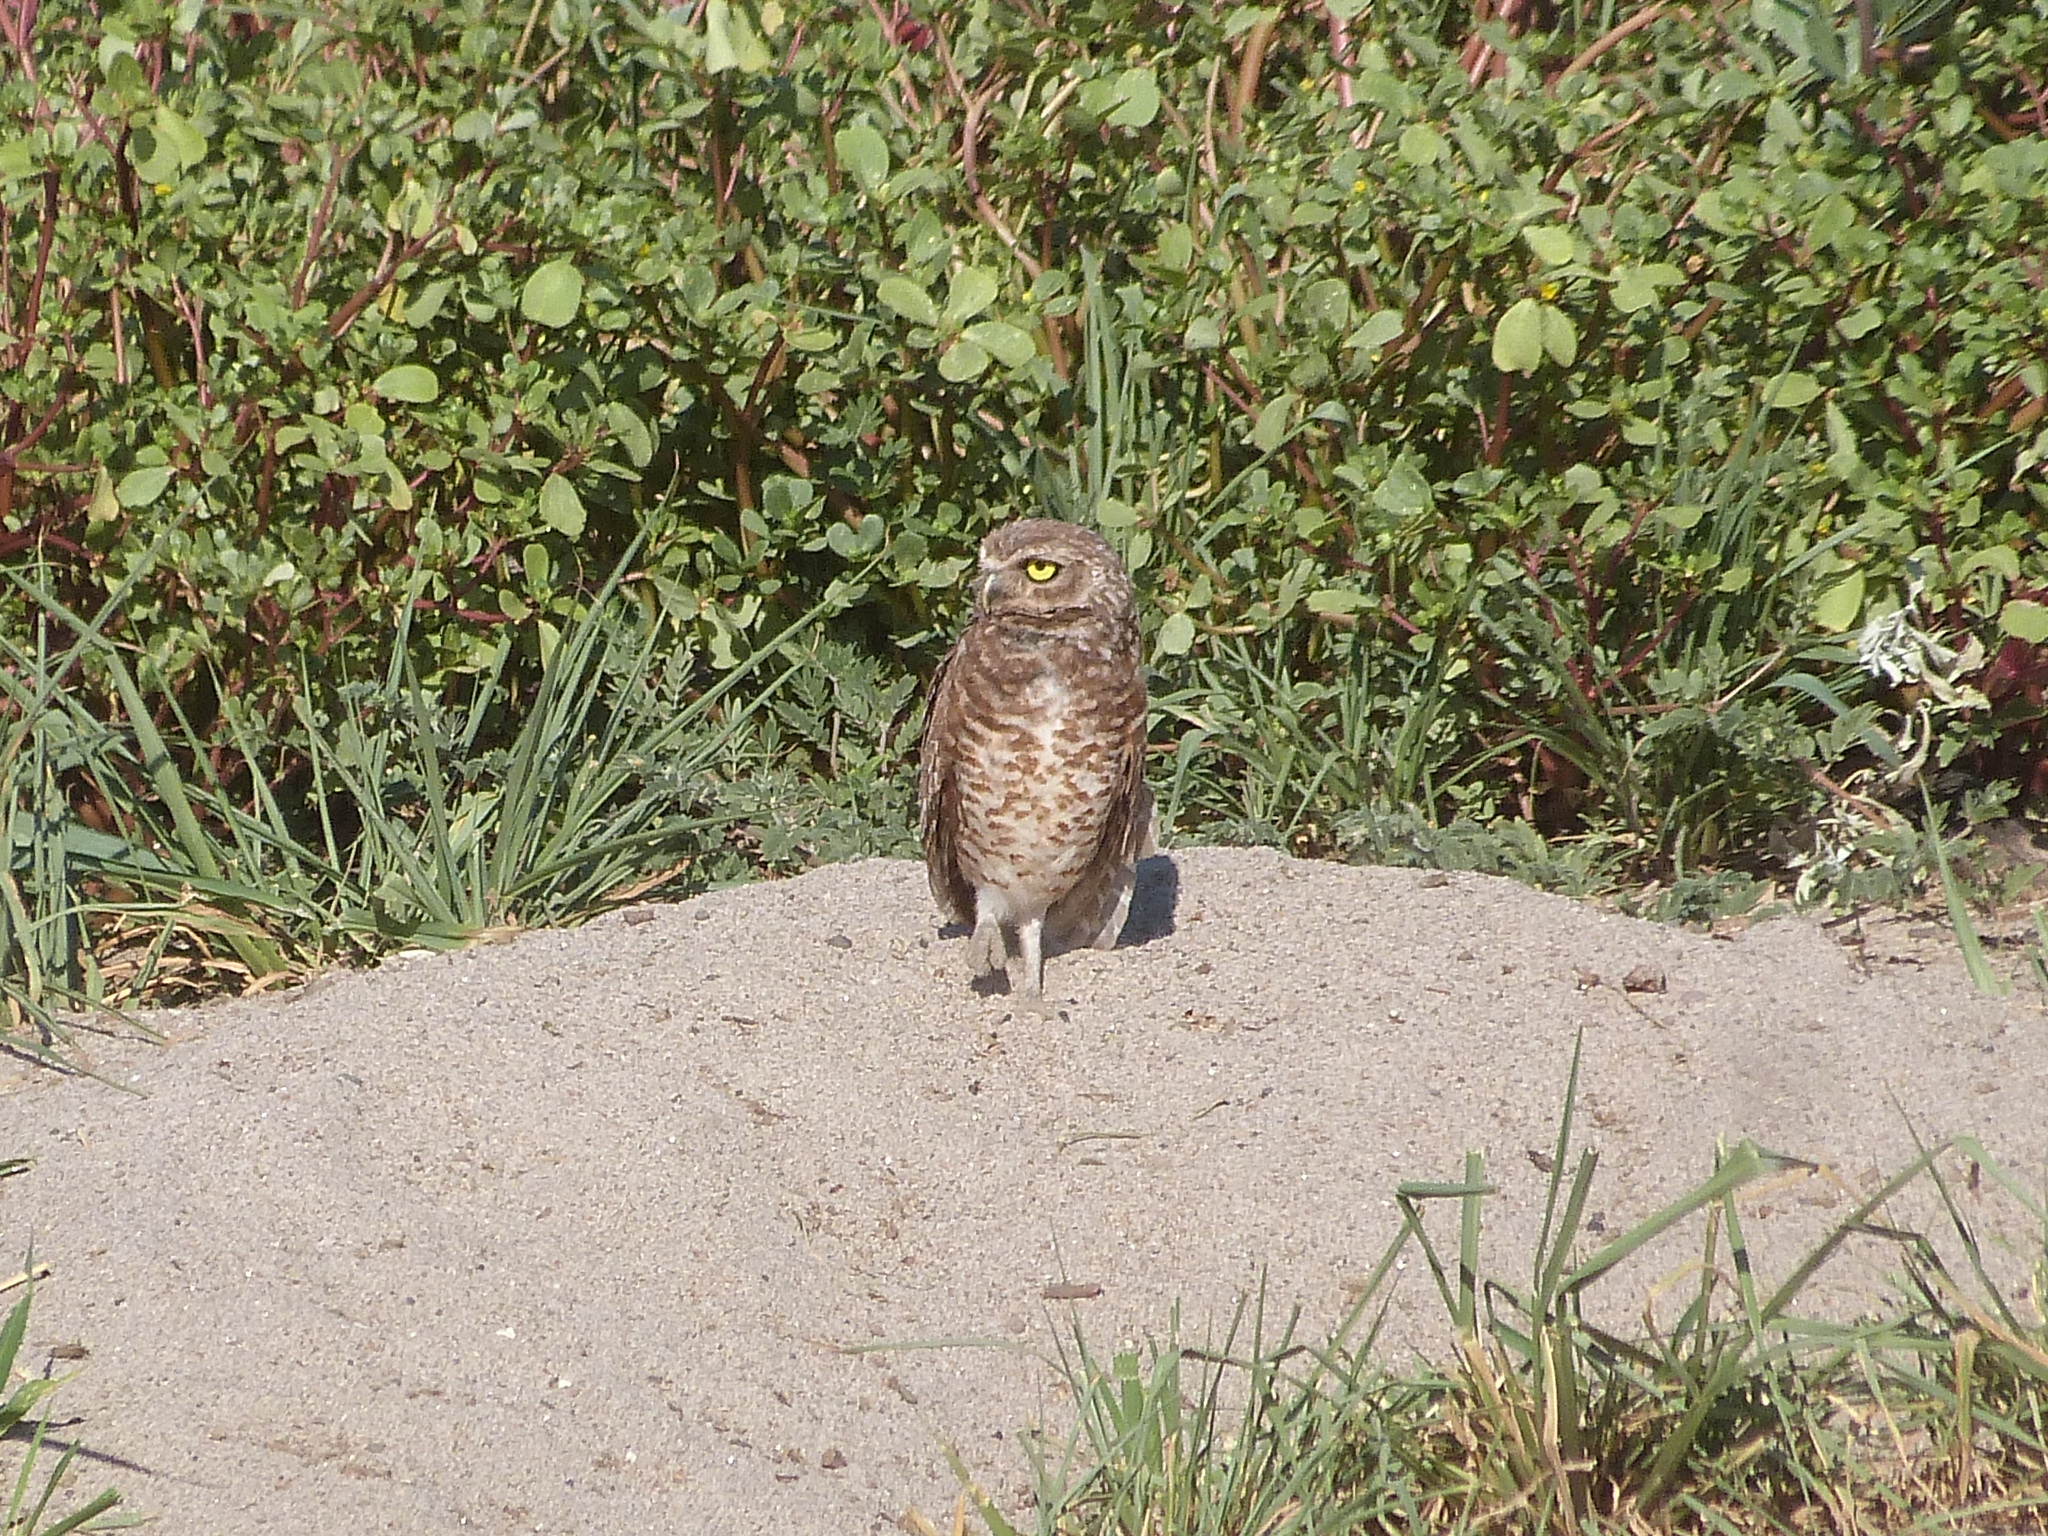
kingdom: Animalia
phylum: Chordata
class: Aves
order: Strigiformes
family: Strigidae
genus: Athene
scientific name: Athene cunicularia
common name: Burrowing owl
